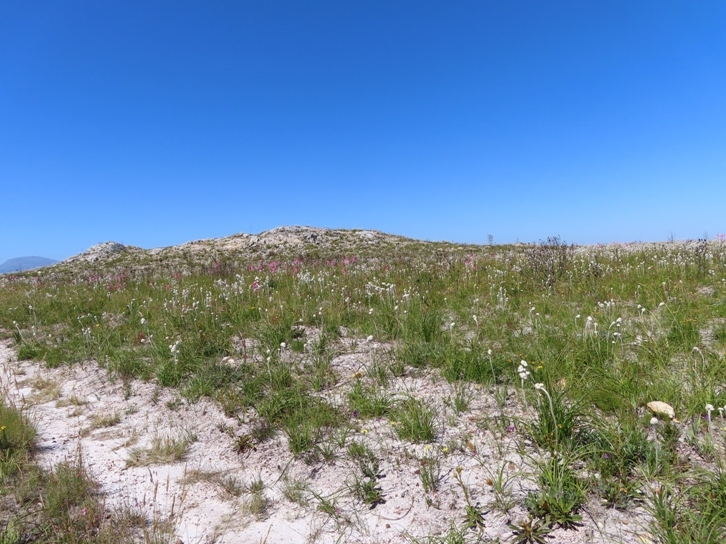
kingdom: Plantae
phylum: Tracheophyta
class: Liliopsida
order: Asparagales
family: Lanariaceae
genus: Lanaria
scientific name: Lanaria lanata
